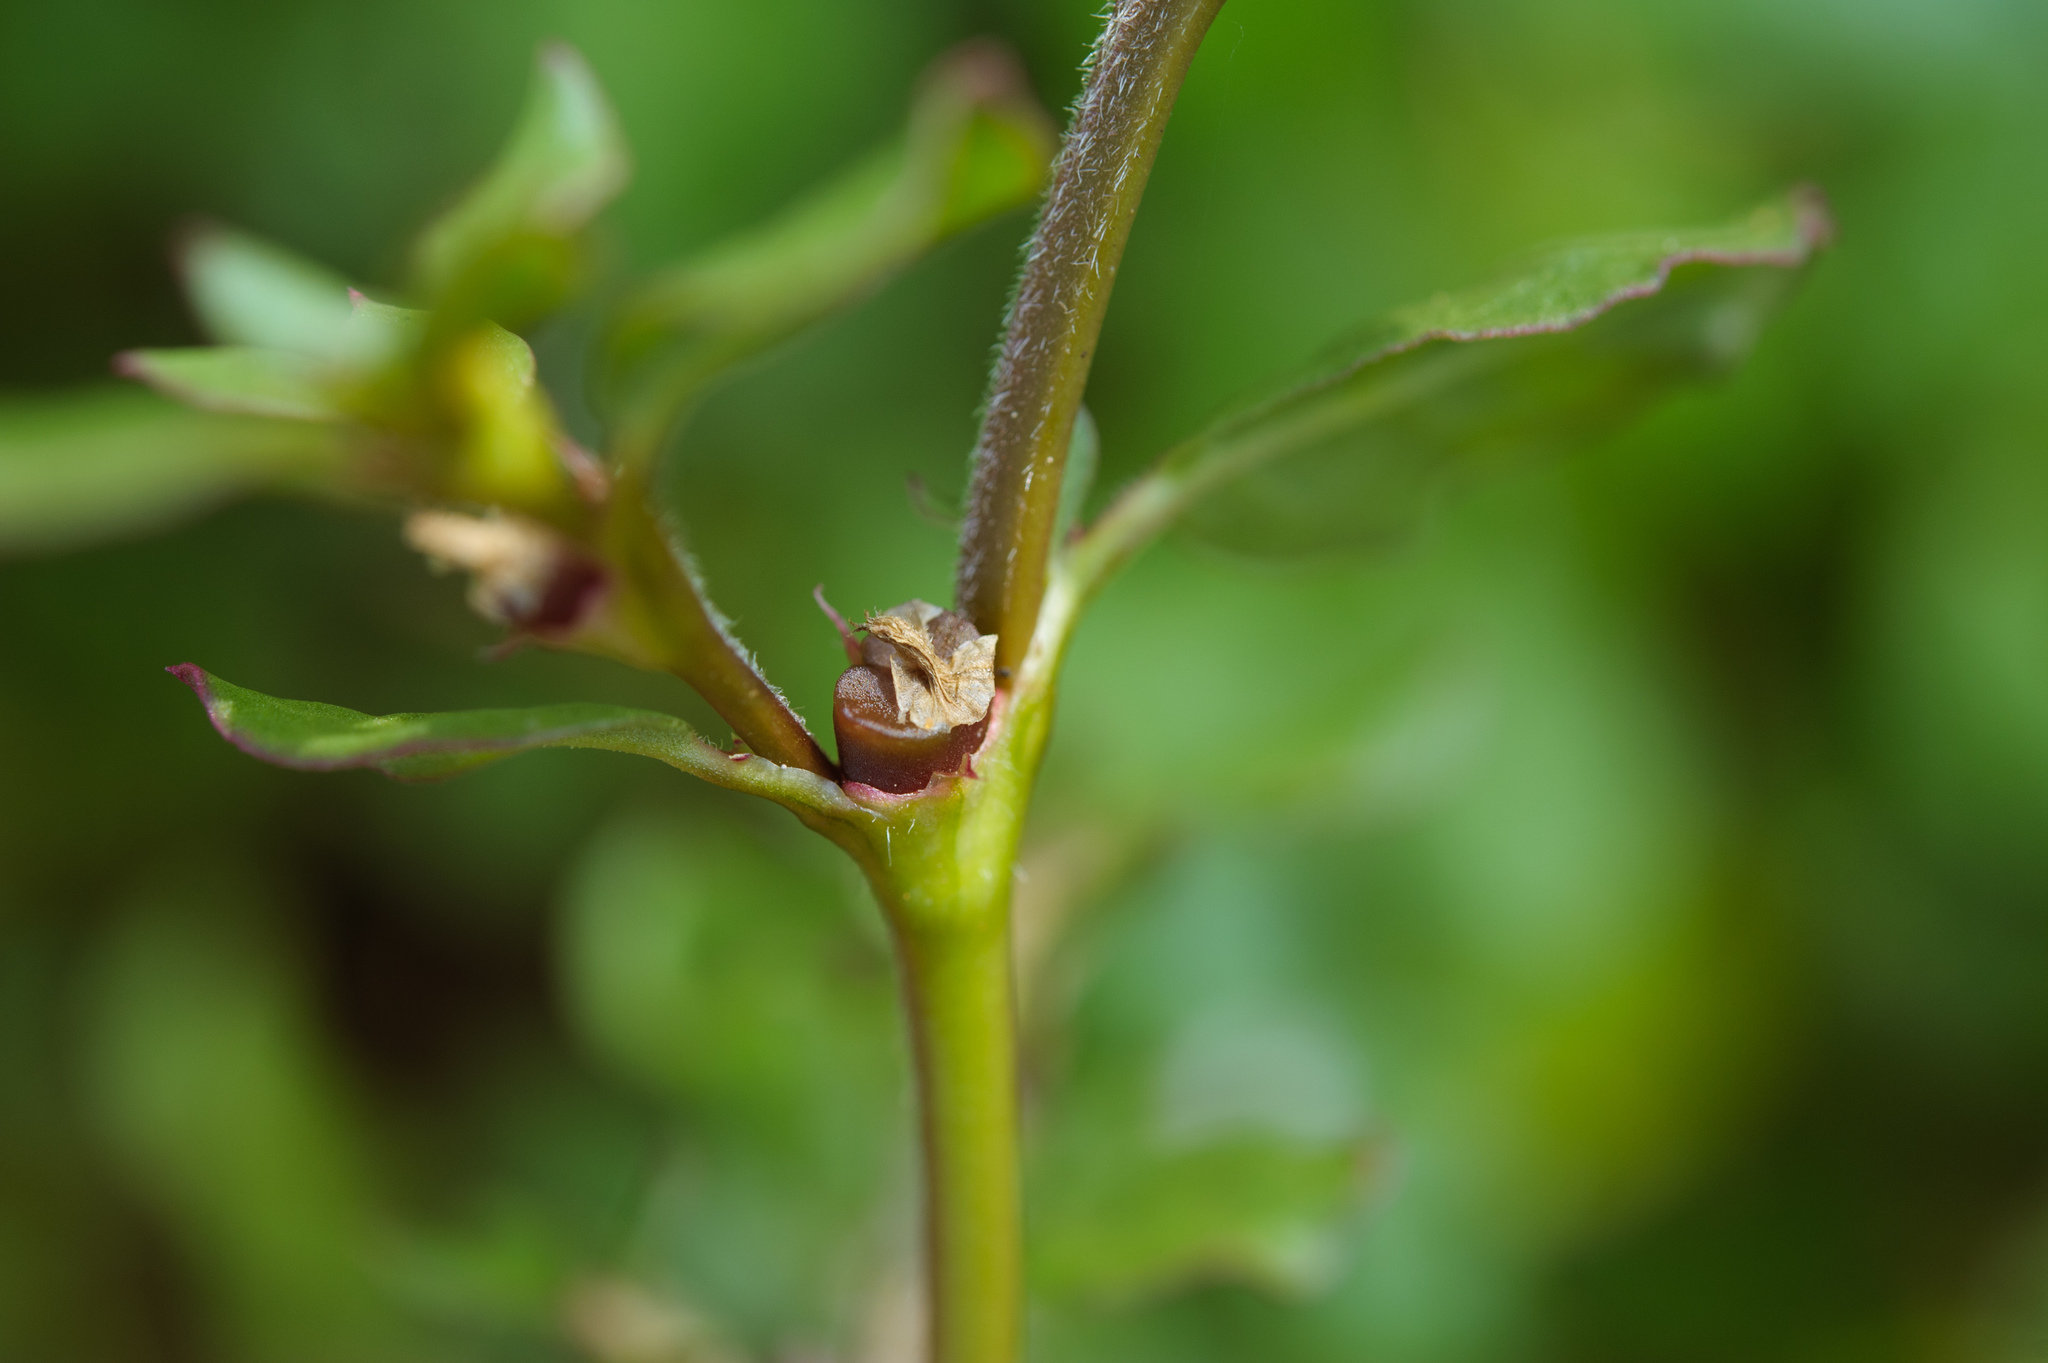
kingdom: Plantae
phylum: Tracheophyta
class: Magnoliopsida
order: Caryophyllales
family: Aizoaceae
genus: Trianthema
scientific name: Trianthema portulacastrum
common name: Desert horsepurslane
